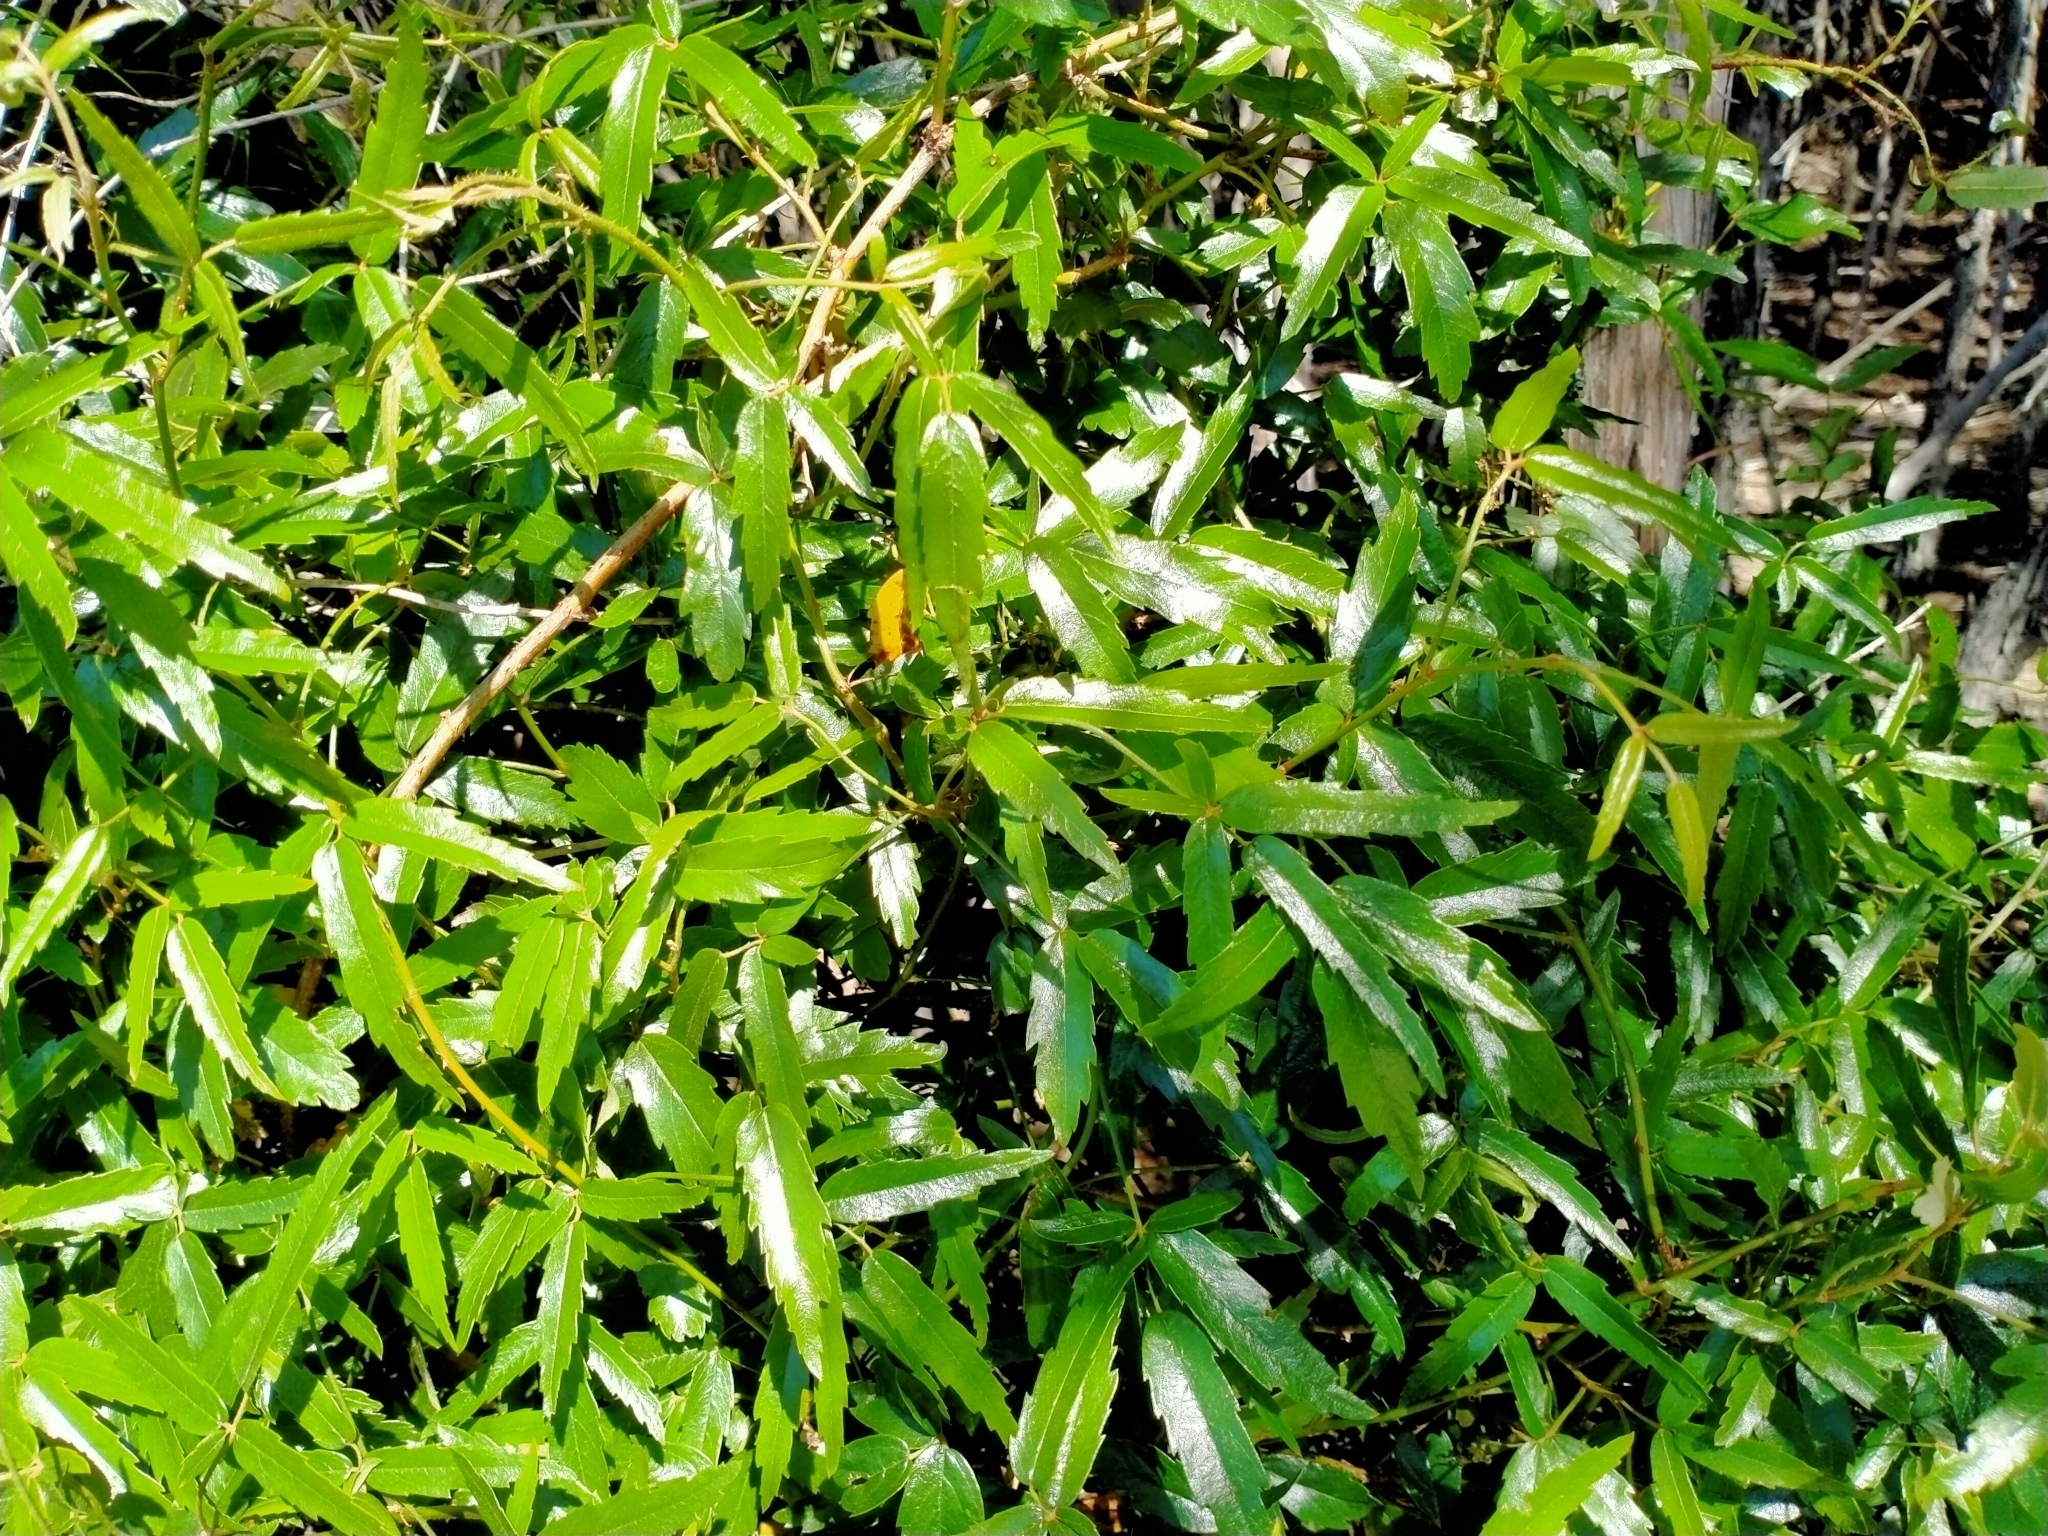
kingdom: Plantae
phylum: Tracheophyta
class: Magnoliopsida
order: Rosales
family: Rosaceae
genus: Rubus
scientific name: Rubus schmidelioides
